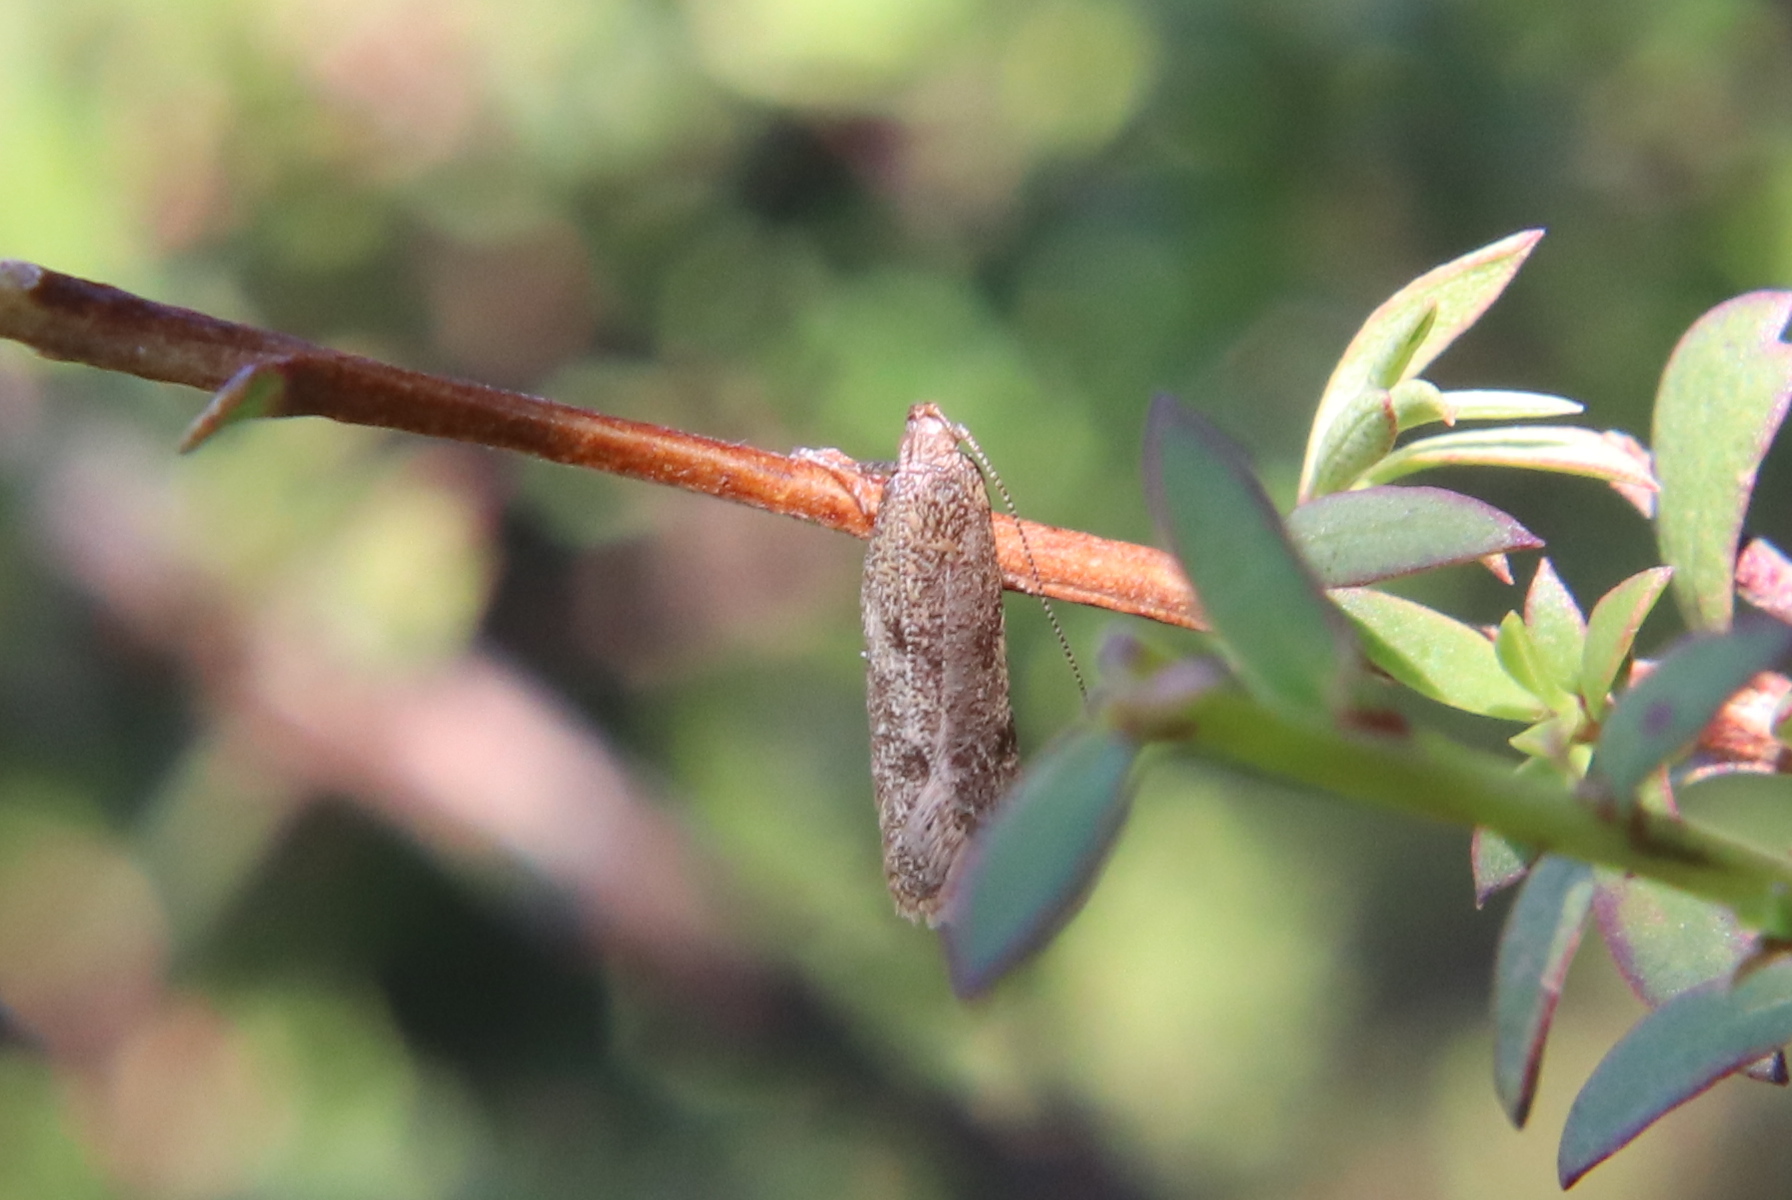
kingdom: Animalia
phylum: Arthropoda
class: Insecta
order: Lepidoptera
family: Oecophoridae
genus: Gymnobathra
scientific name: Gymnobathra tholodella
